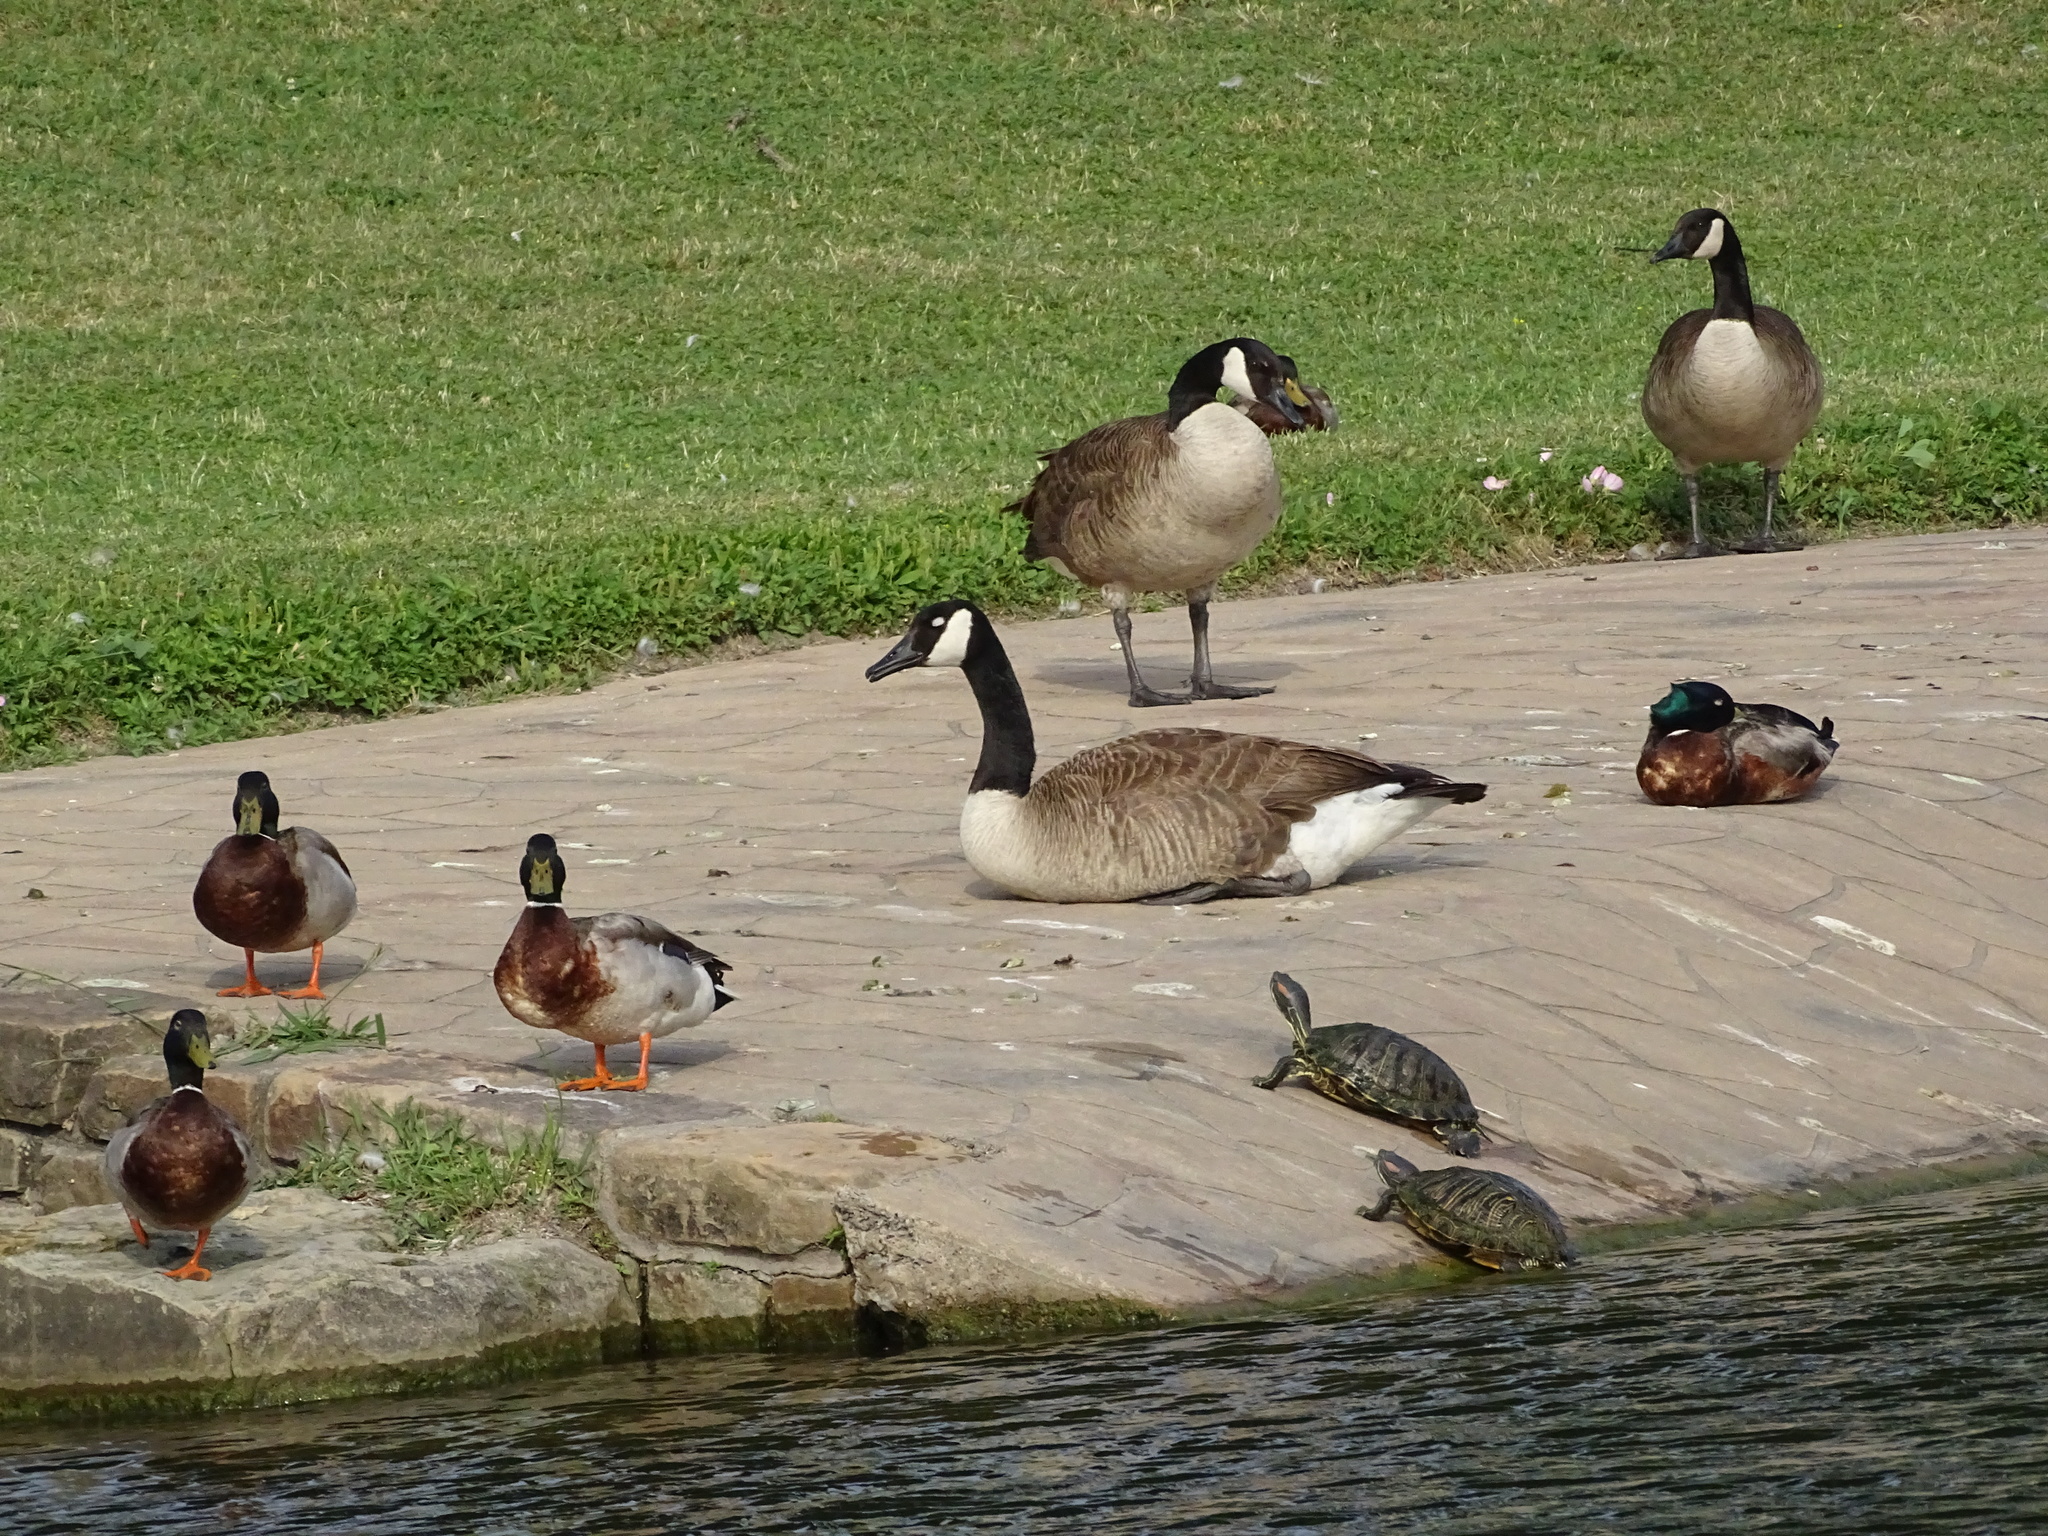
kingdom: Animalia
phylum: Chordata
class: Aves
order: Anseriformes
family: Anatidae
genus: Branta
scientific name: Branta canadensis
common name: Canada goose
